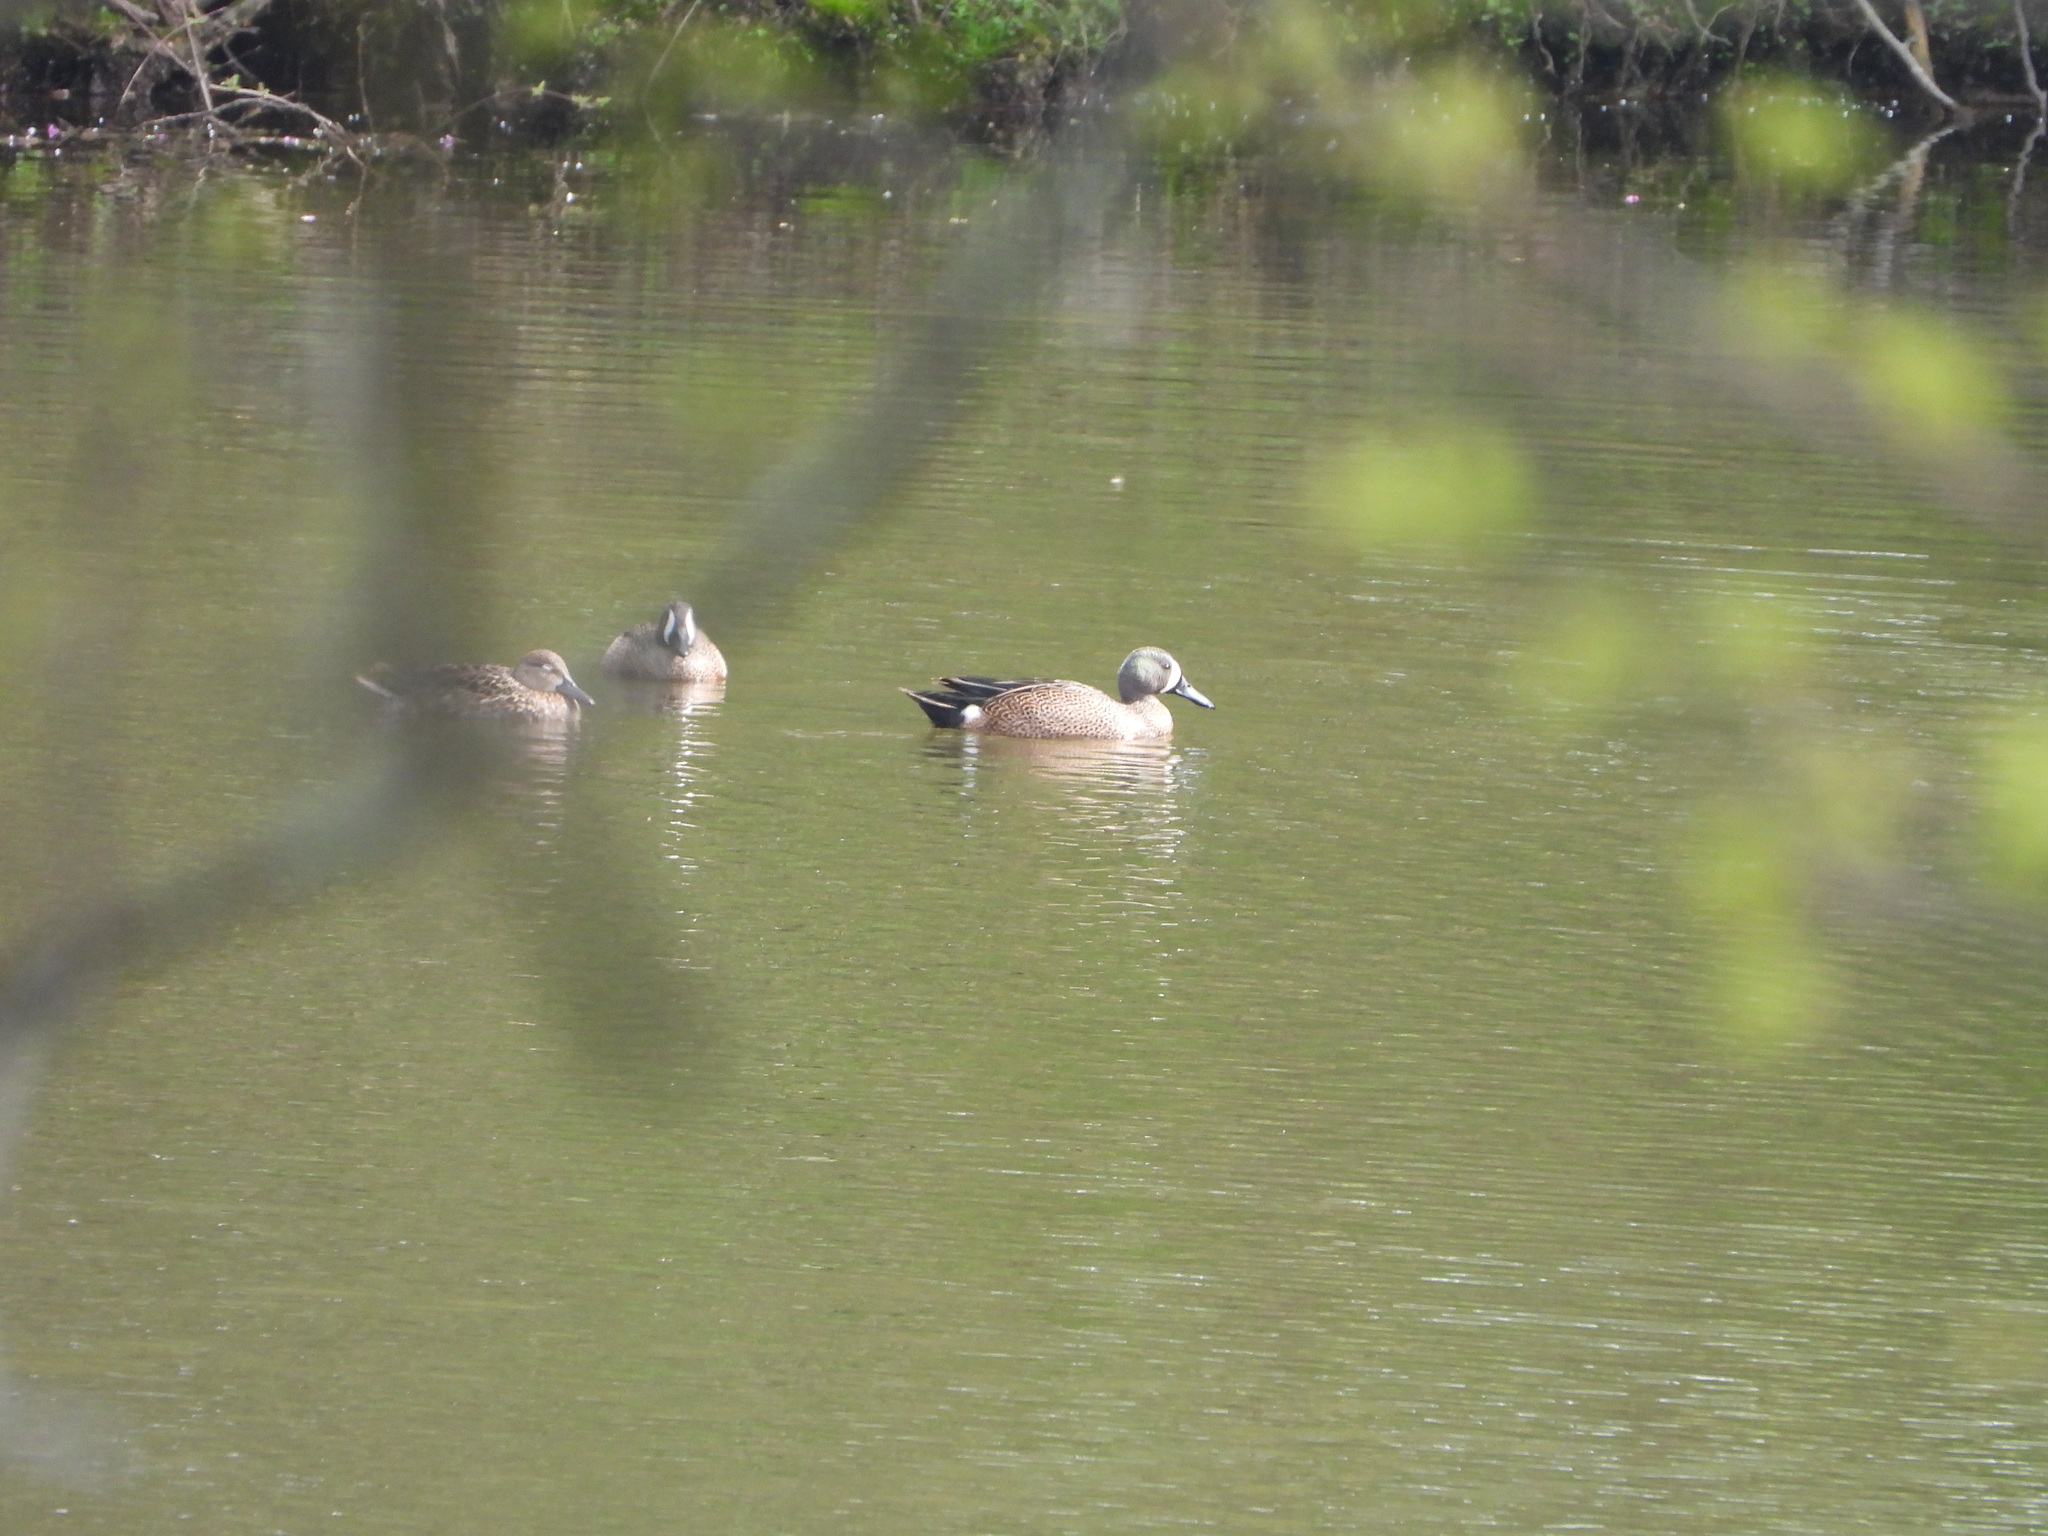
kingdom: Animalia
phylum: Chordata
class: Aves
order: Anseriformes
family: Anatidae
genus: Spatula
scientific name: Spatula discors
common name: Blue-winged teal
